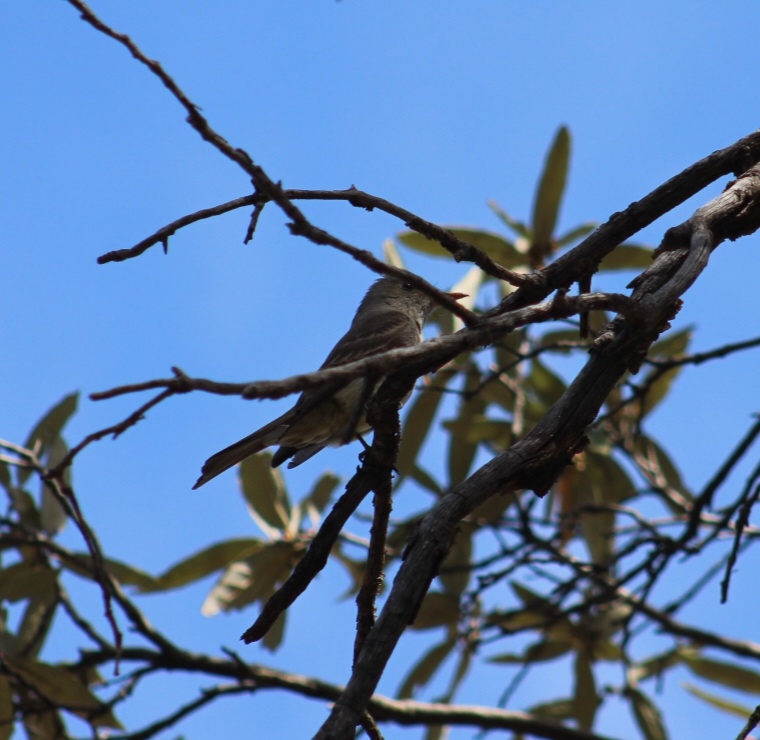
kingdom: Animalia
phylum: Chordata
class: Aves
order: Passeriformes
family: Tyrannidae
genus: Contopus
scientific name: Contopus pertinax
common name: Greater pewee
